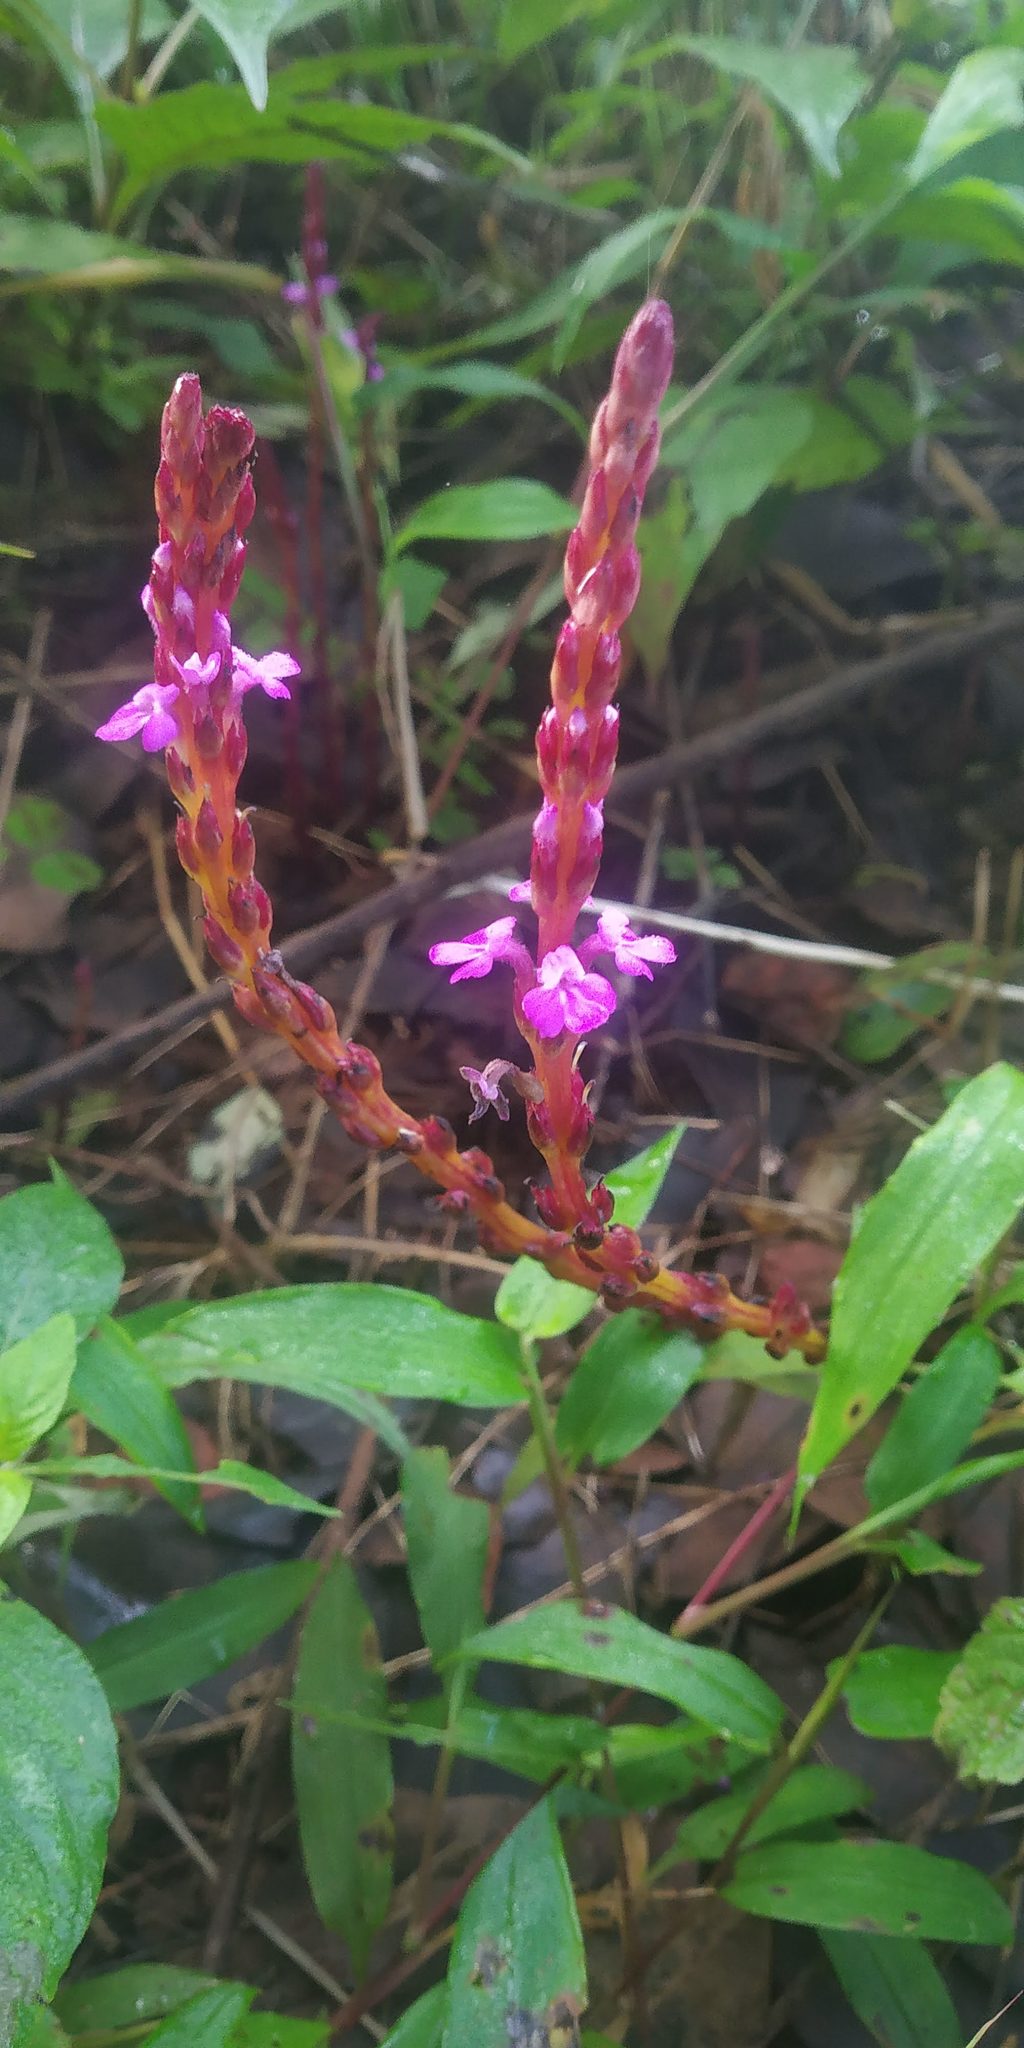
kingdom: Plantae
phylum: Tracheophyta
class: Magnoliopsida
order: Lamiales
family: Orobanchaceae
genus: Striga
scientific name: Striga gesnerioides
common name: Cowpea witchweed
